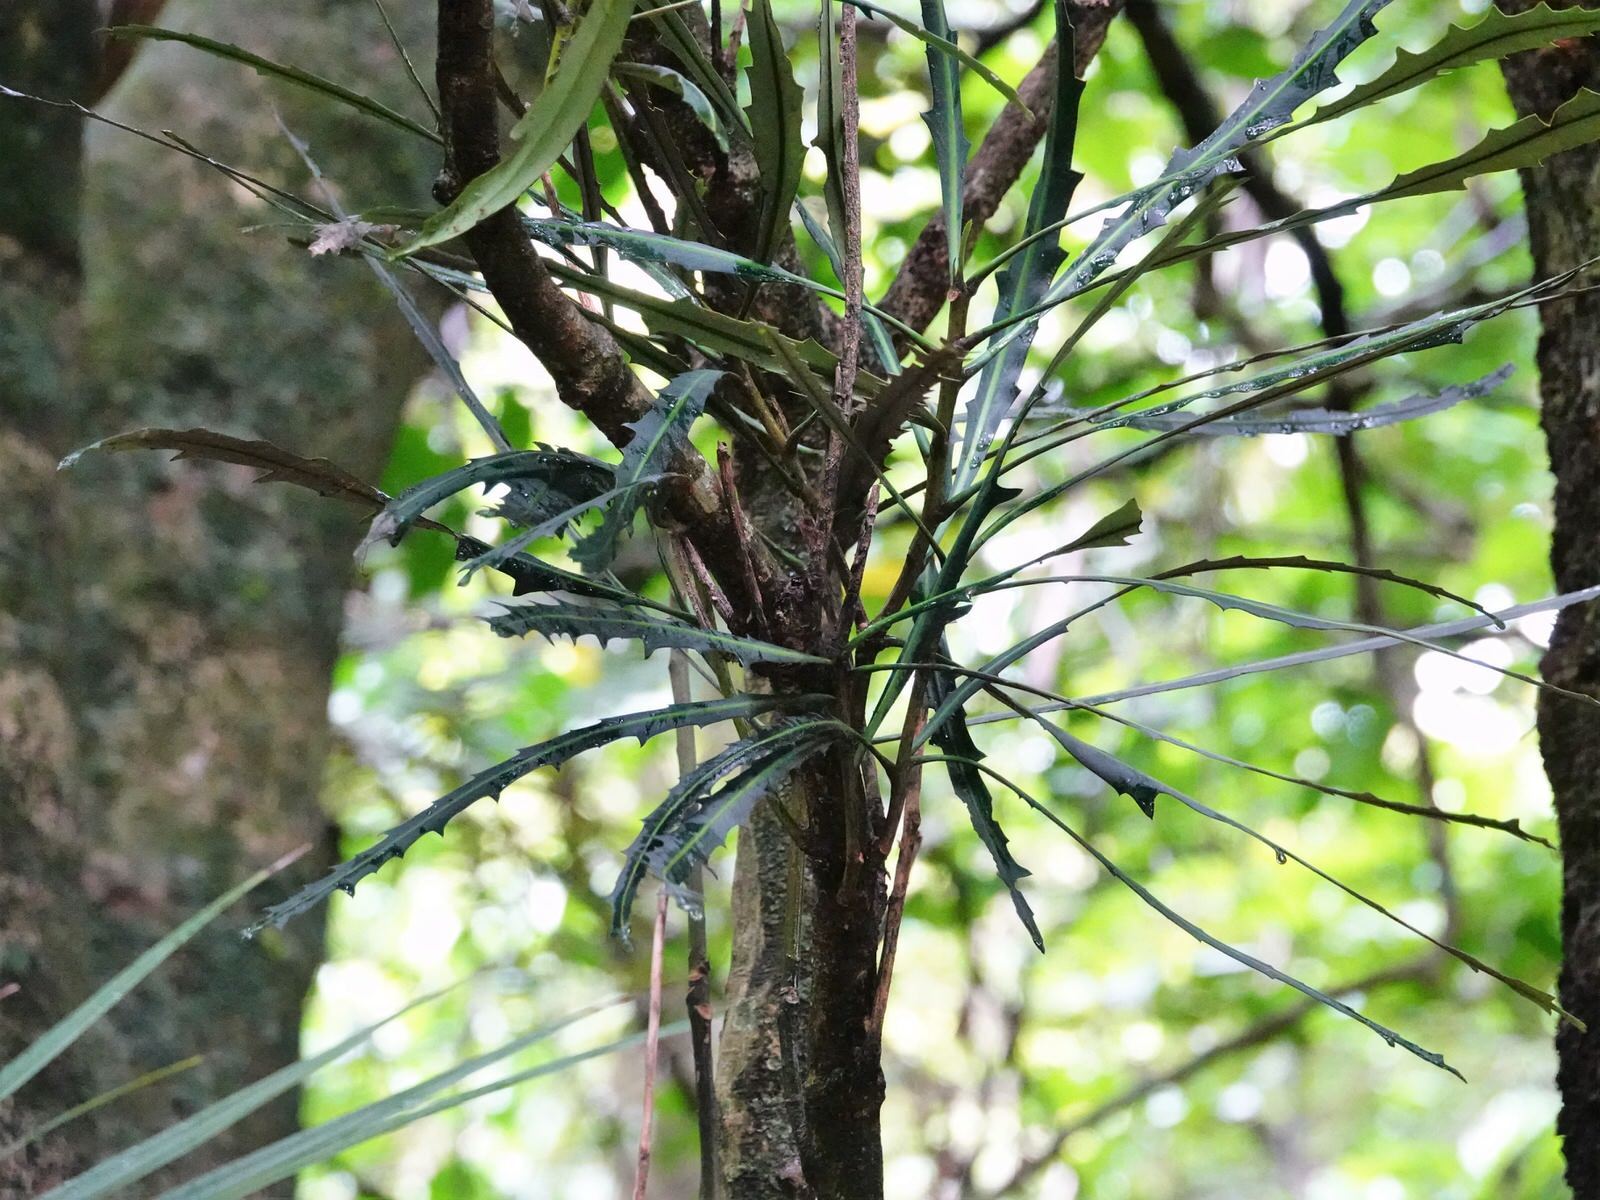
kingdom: Plantae
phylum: Tracheophyta
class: Magnoliopsida
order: Apiales
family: Araliaceae
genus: Pseudopanax
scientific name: Pseudopanax crassifolius
